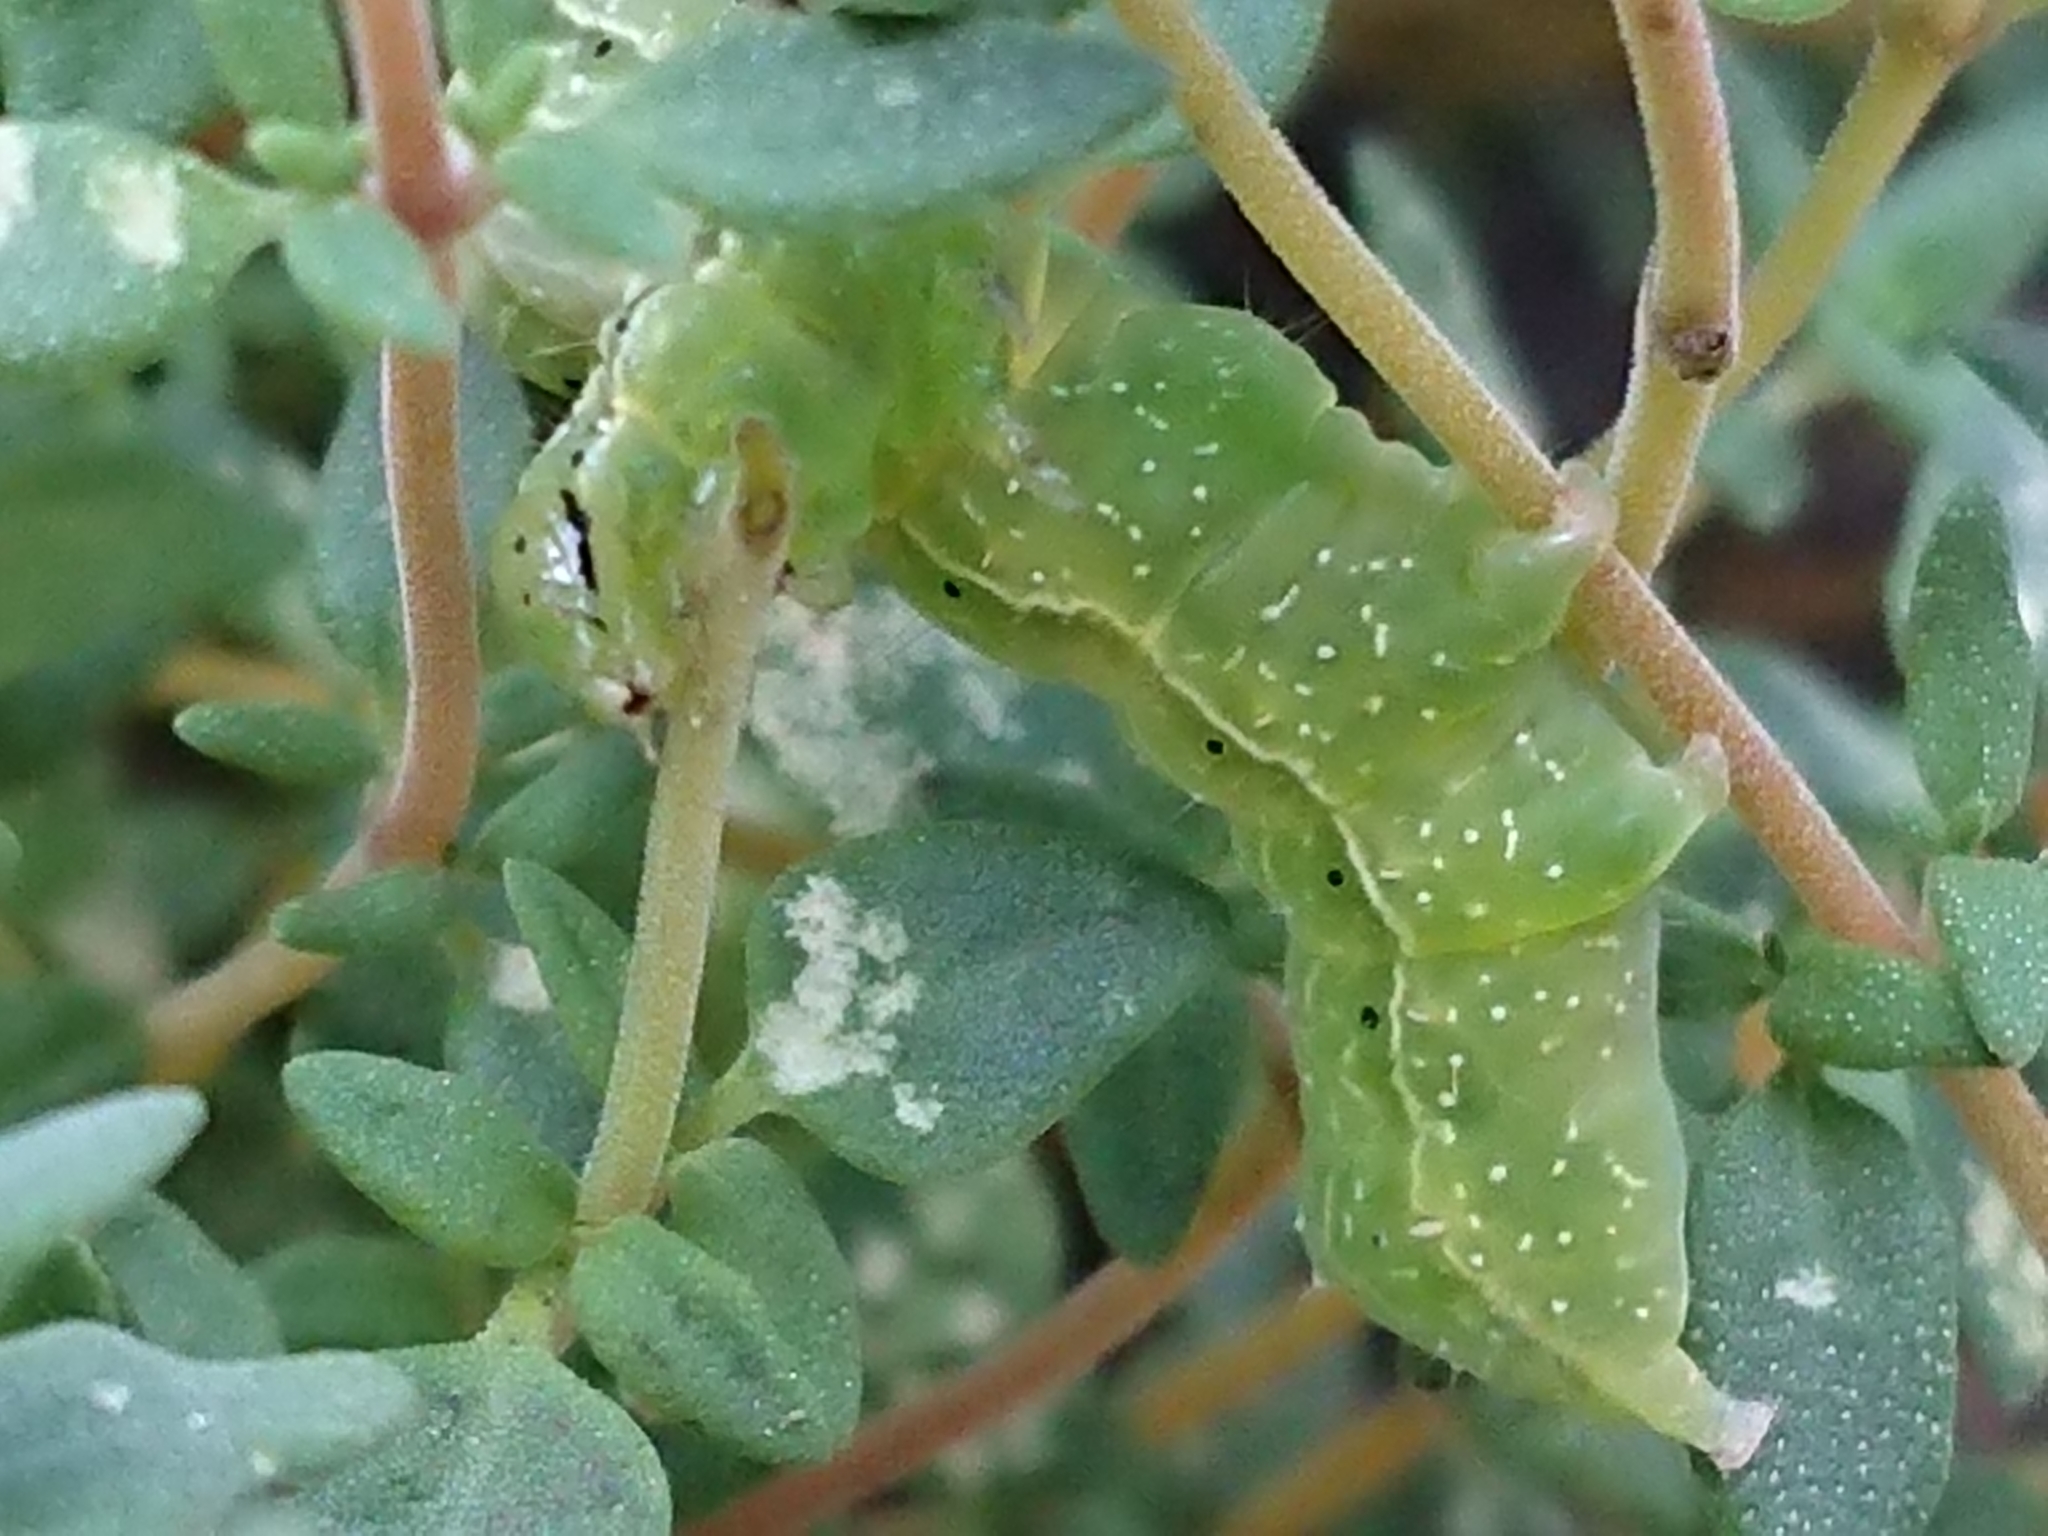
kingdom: Animalia
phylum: Arthropoda
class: Insecta
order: Lepidoptera
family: Noctuidae
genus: Chrysodeixis
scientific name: Chrysodeixis eriosoma
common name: Green garden looper
